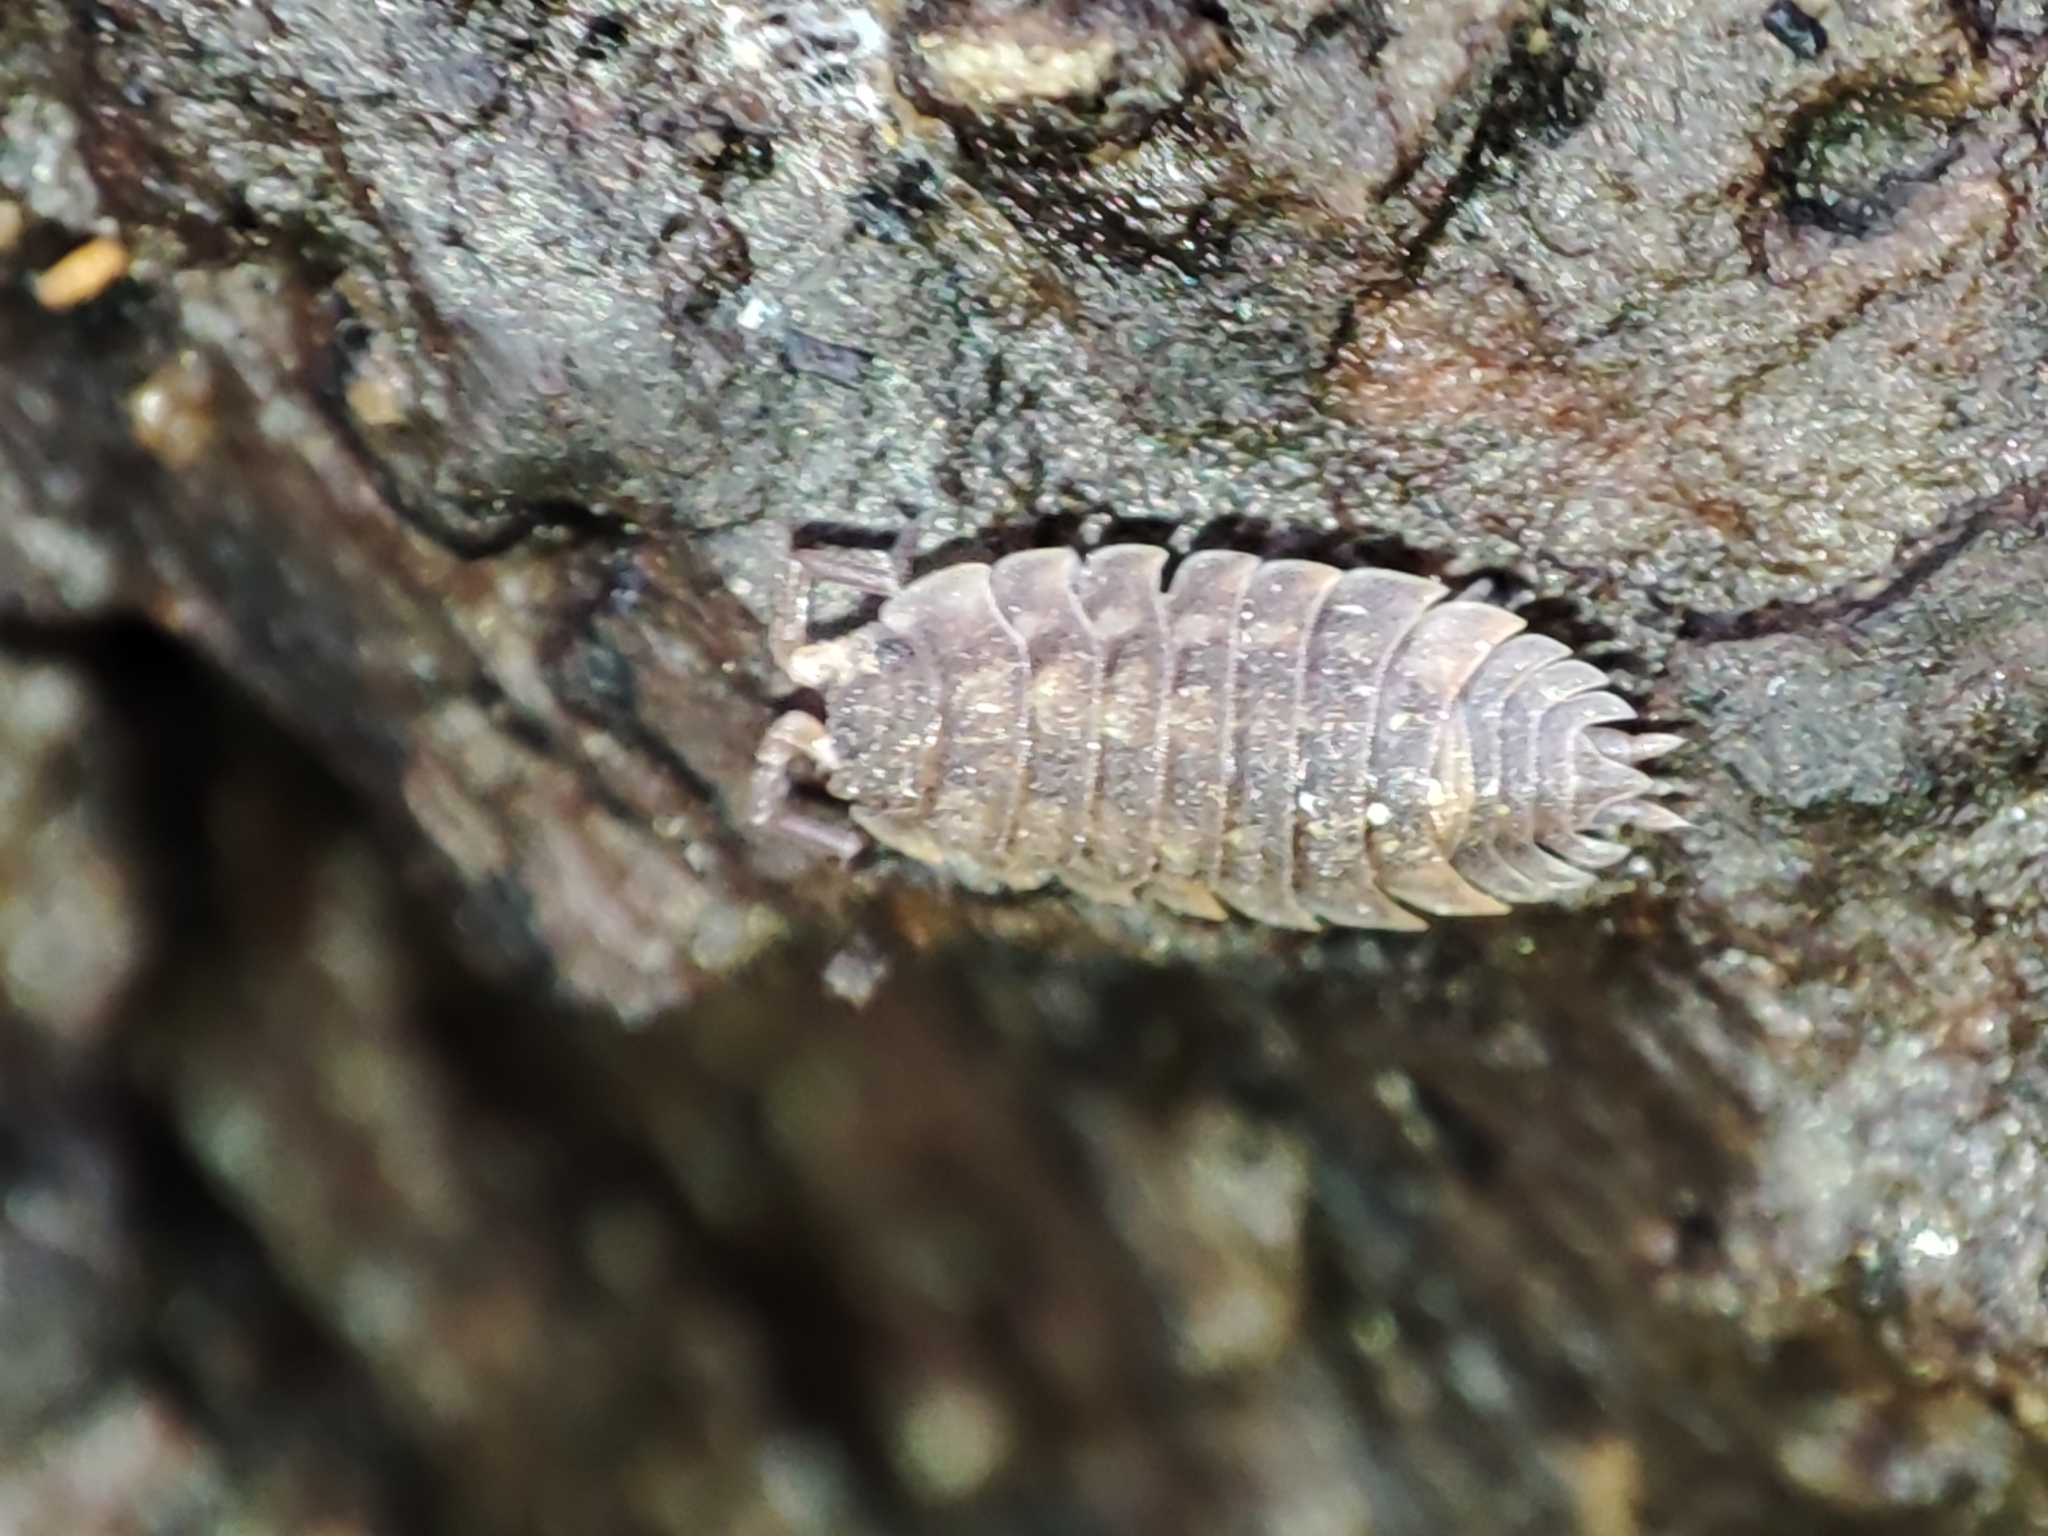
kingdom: Animalia
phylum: Arthropoda
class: Malacostraca
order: Isopoda
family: Oniscidae
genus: Oniscus
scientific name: Oniscus asellus
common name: Common shiny woodlouse
